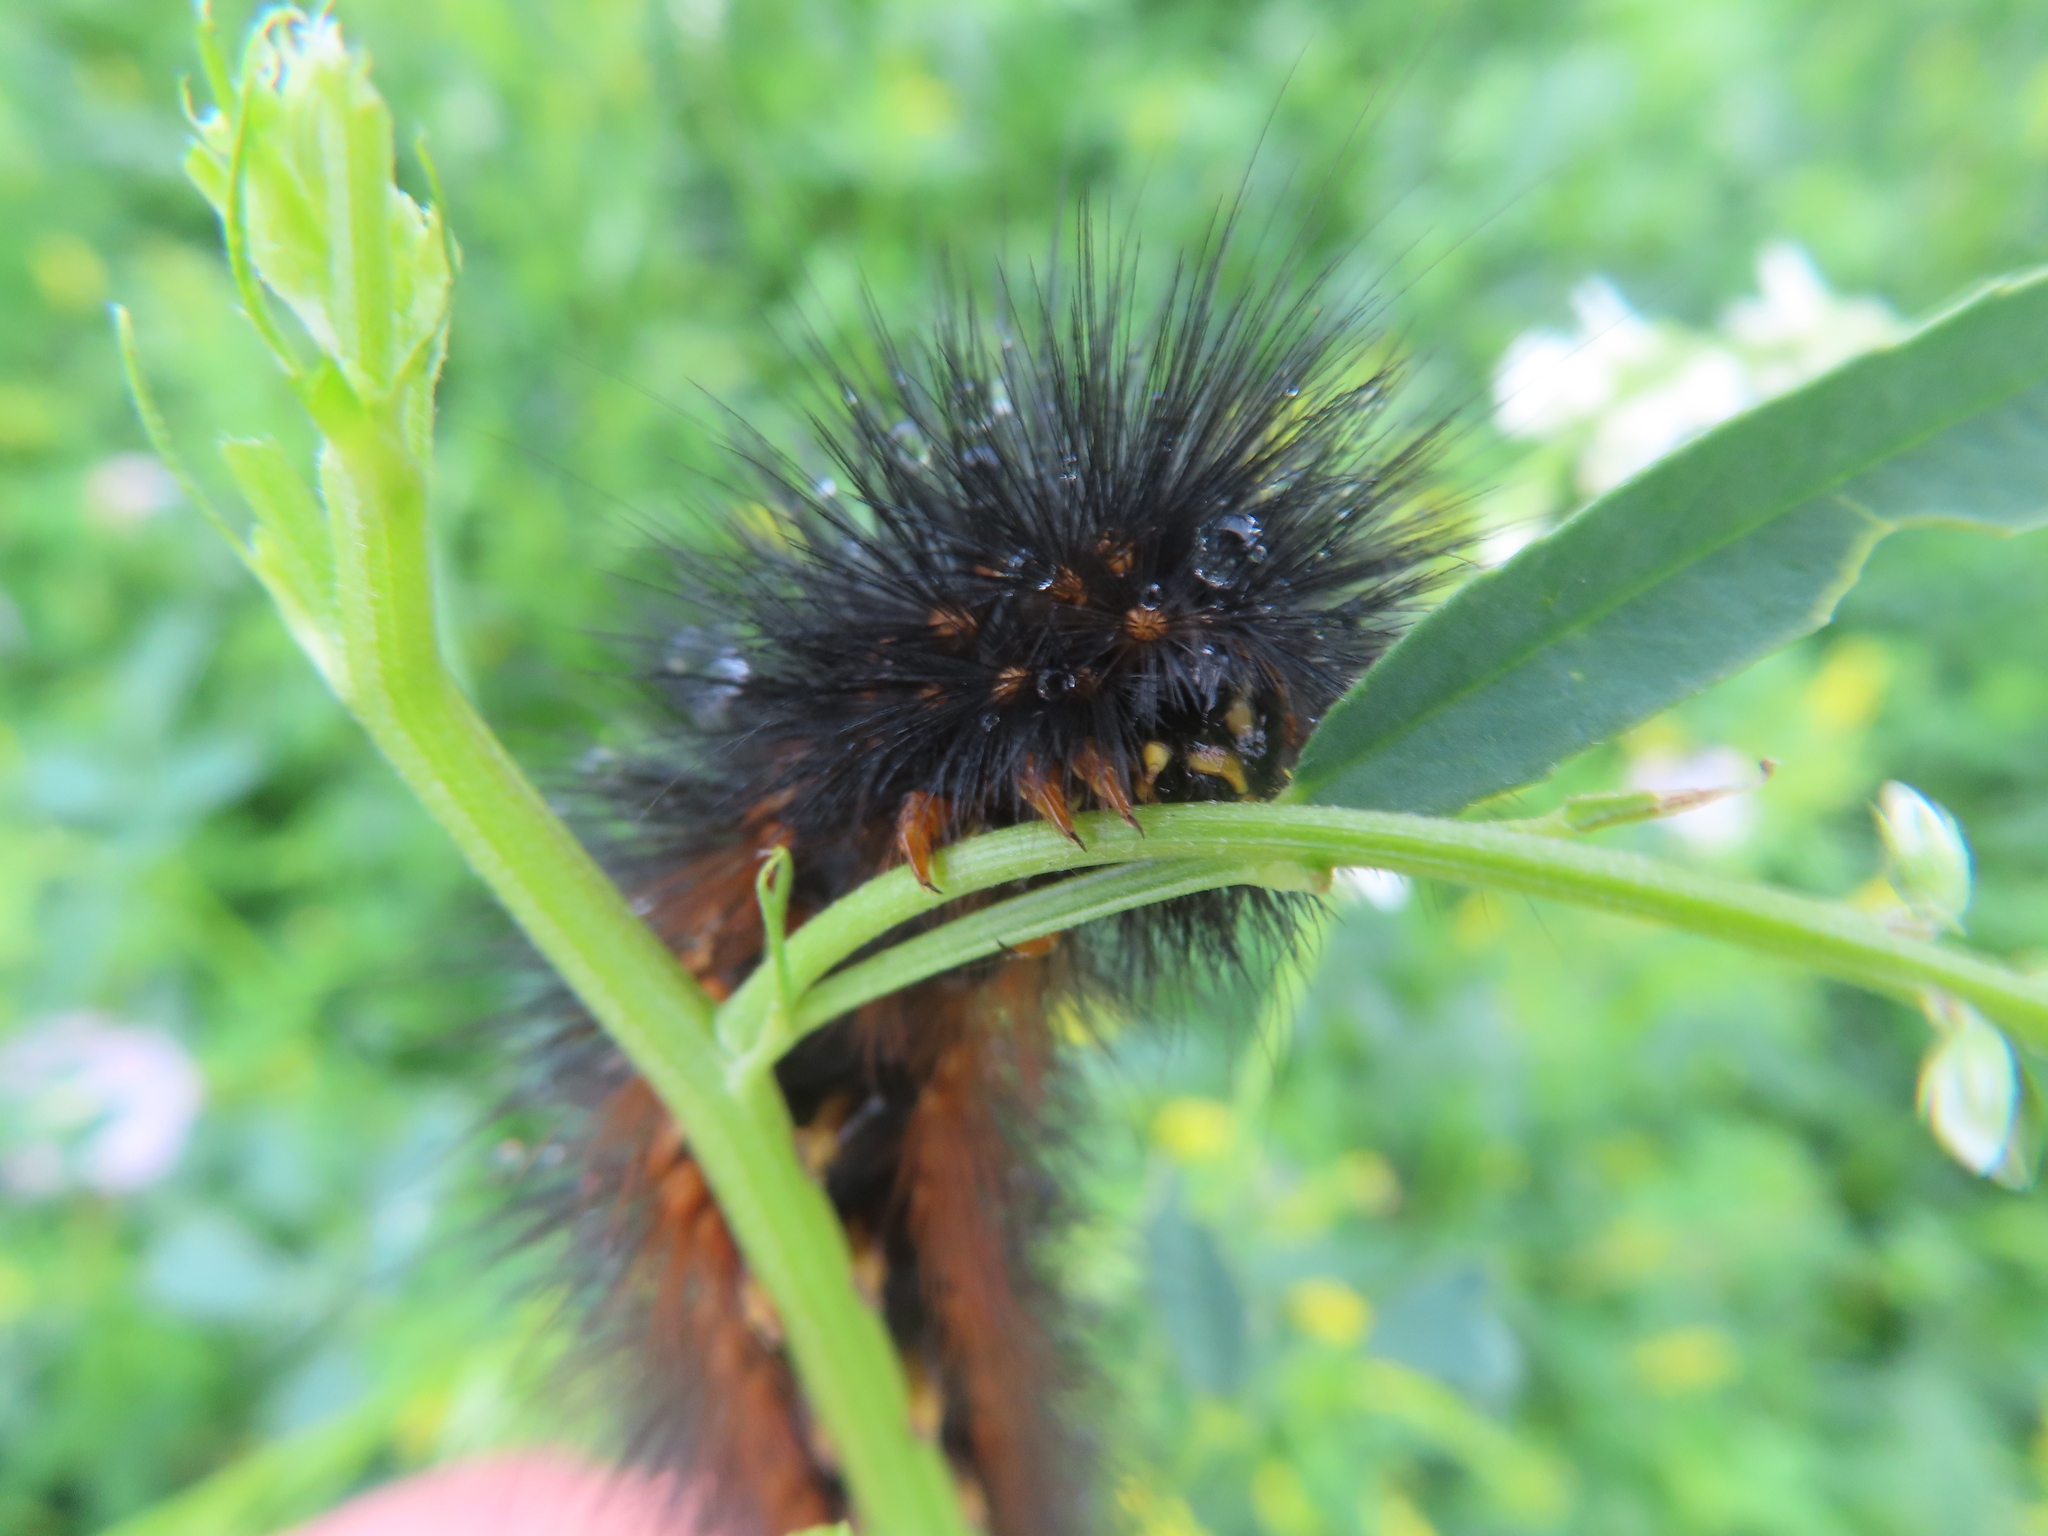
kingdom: Animalia
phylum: Arthropoda
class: Insecta
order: Lepidoptera
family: Erebidae
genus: Estigmene
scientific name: Estigmene acrea
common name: Salt marsh moth
